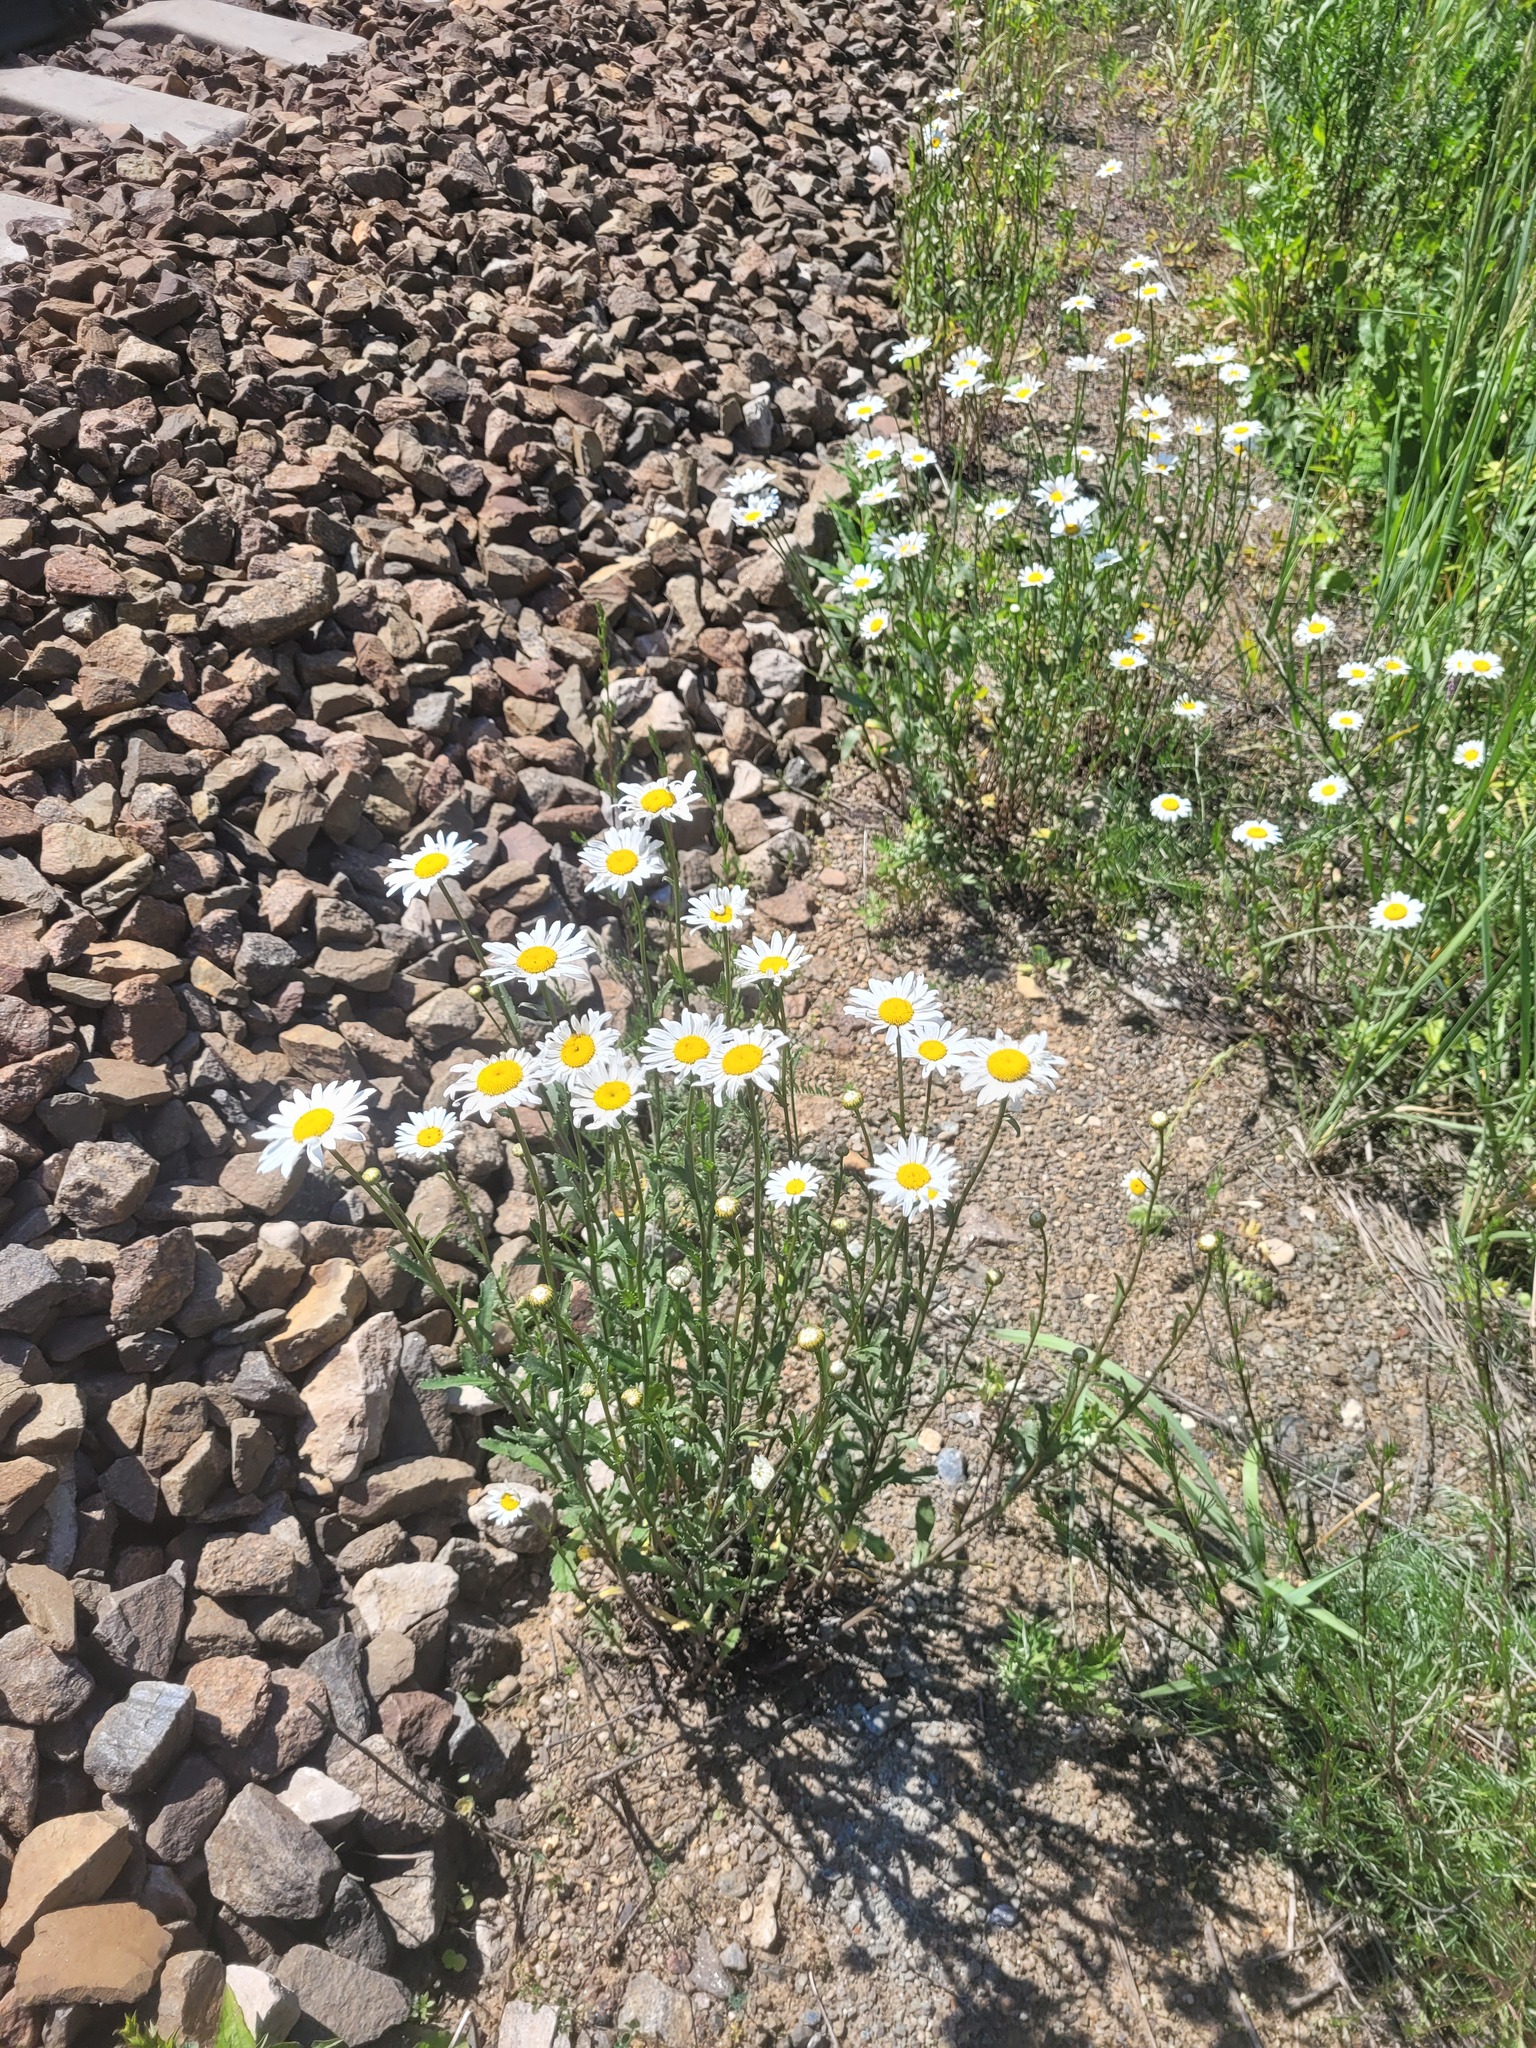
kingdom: Plantae
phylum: Tracheophyta
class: Magnoliopsida
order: Asterales
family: Asteraceae
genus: Leucanthemum
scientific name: Leucanthemum vulgare
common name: Oxeye daisy
